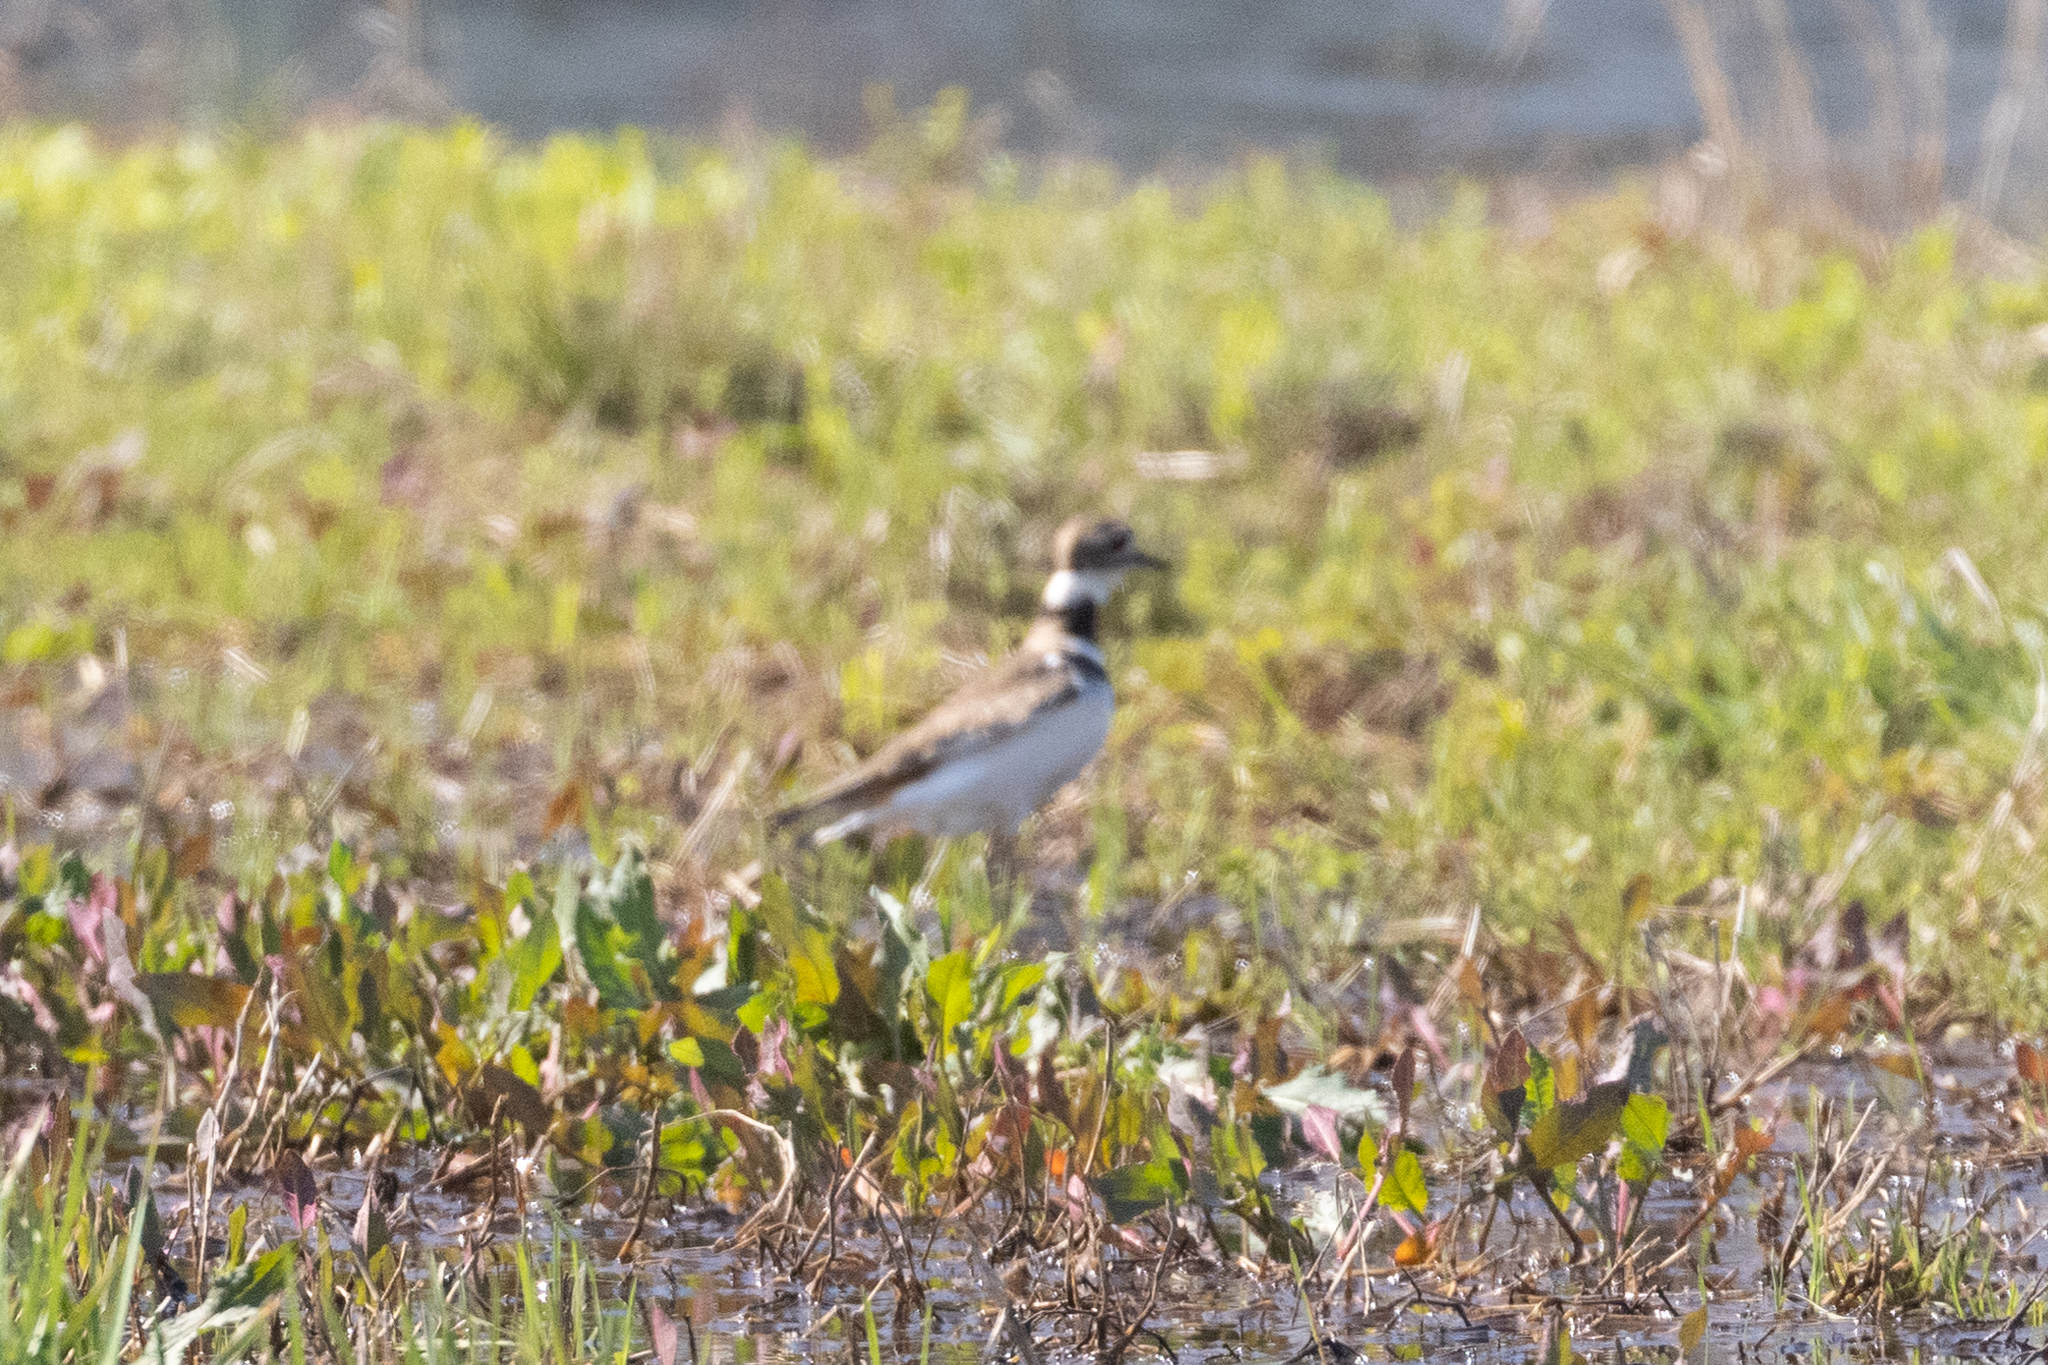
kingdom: Animalia
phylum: Chordata
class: Aves
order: Charadriiformes
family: Charadriidae
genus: Charadrius
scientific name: Charadrius vociferus
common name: Killdeer
